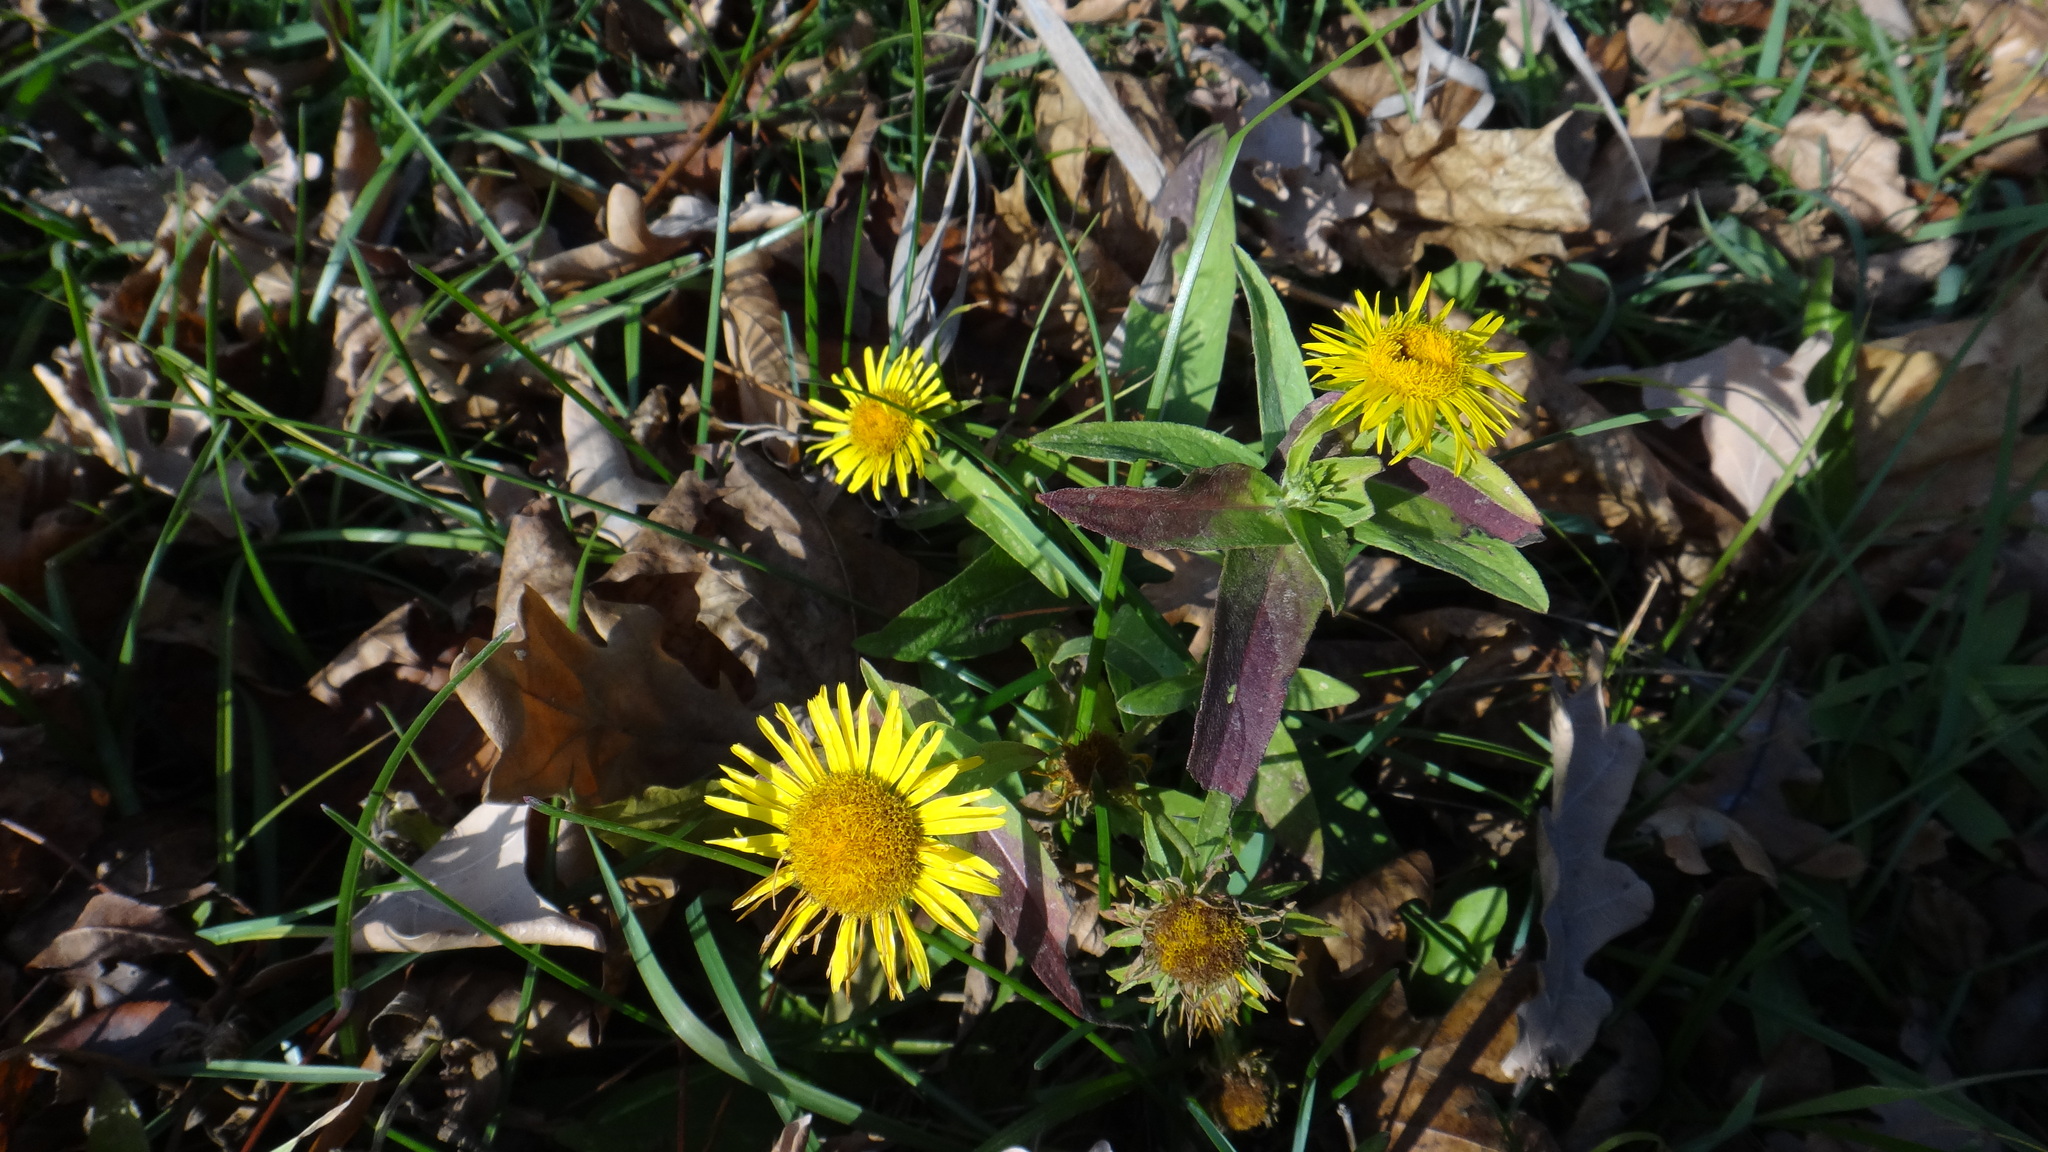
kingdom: Plantae
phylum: Tracheophyta
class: Magnoliopsida
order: Asterales
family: Asteraceae
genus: Pentanema
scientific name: Pentanema britannicum
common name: British elecampane
